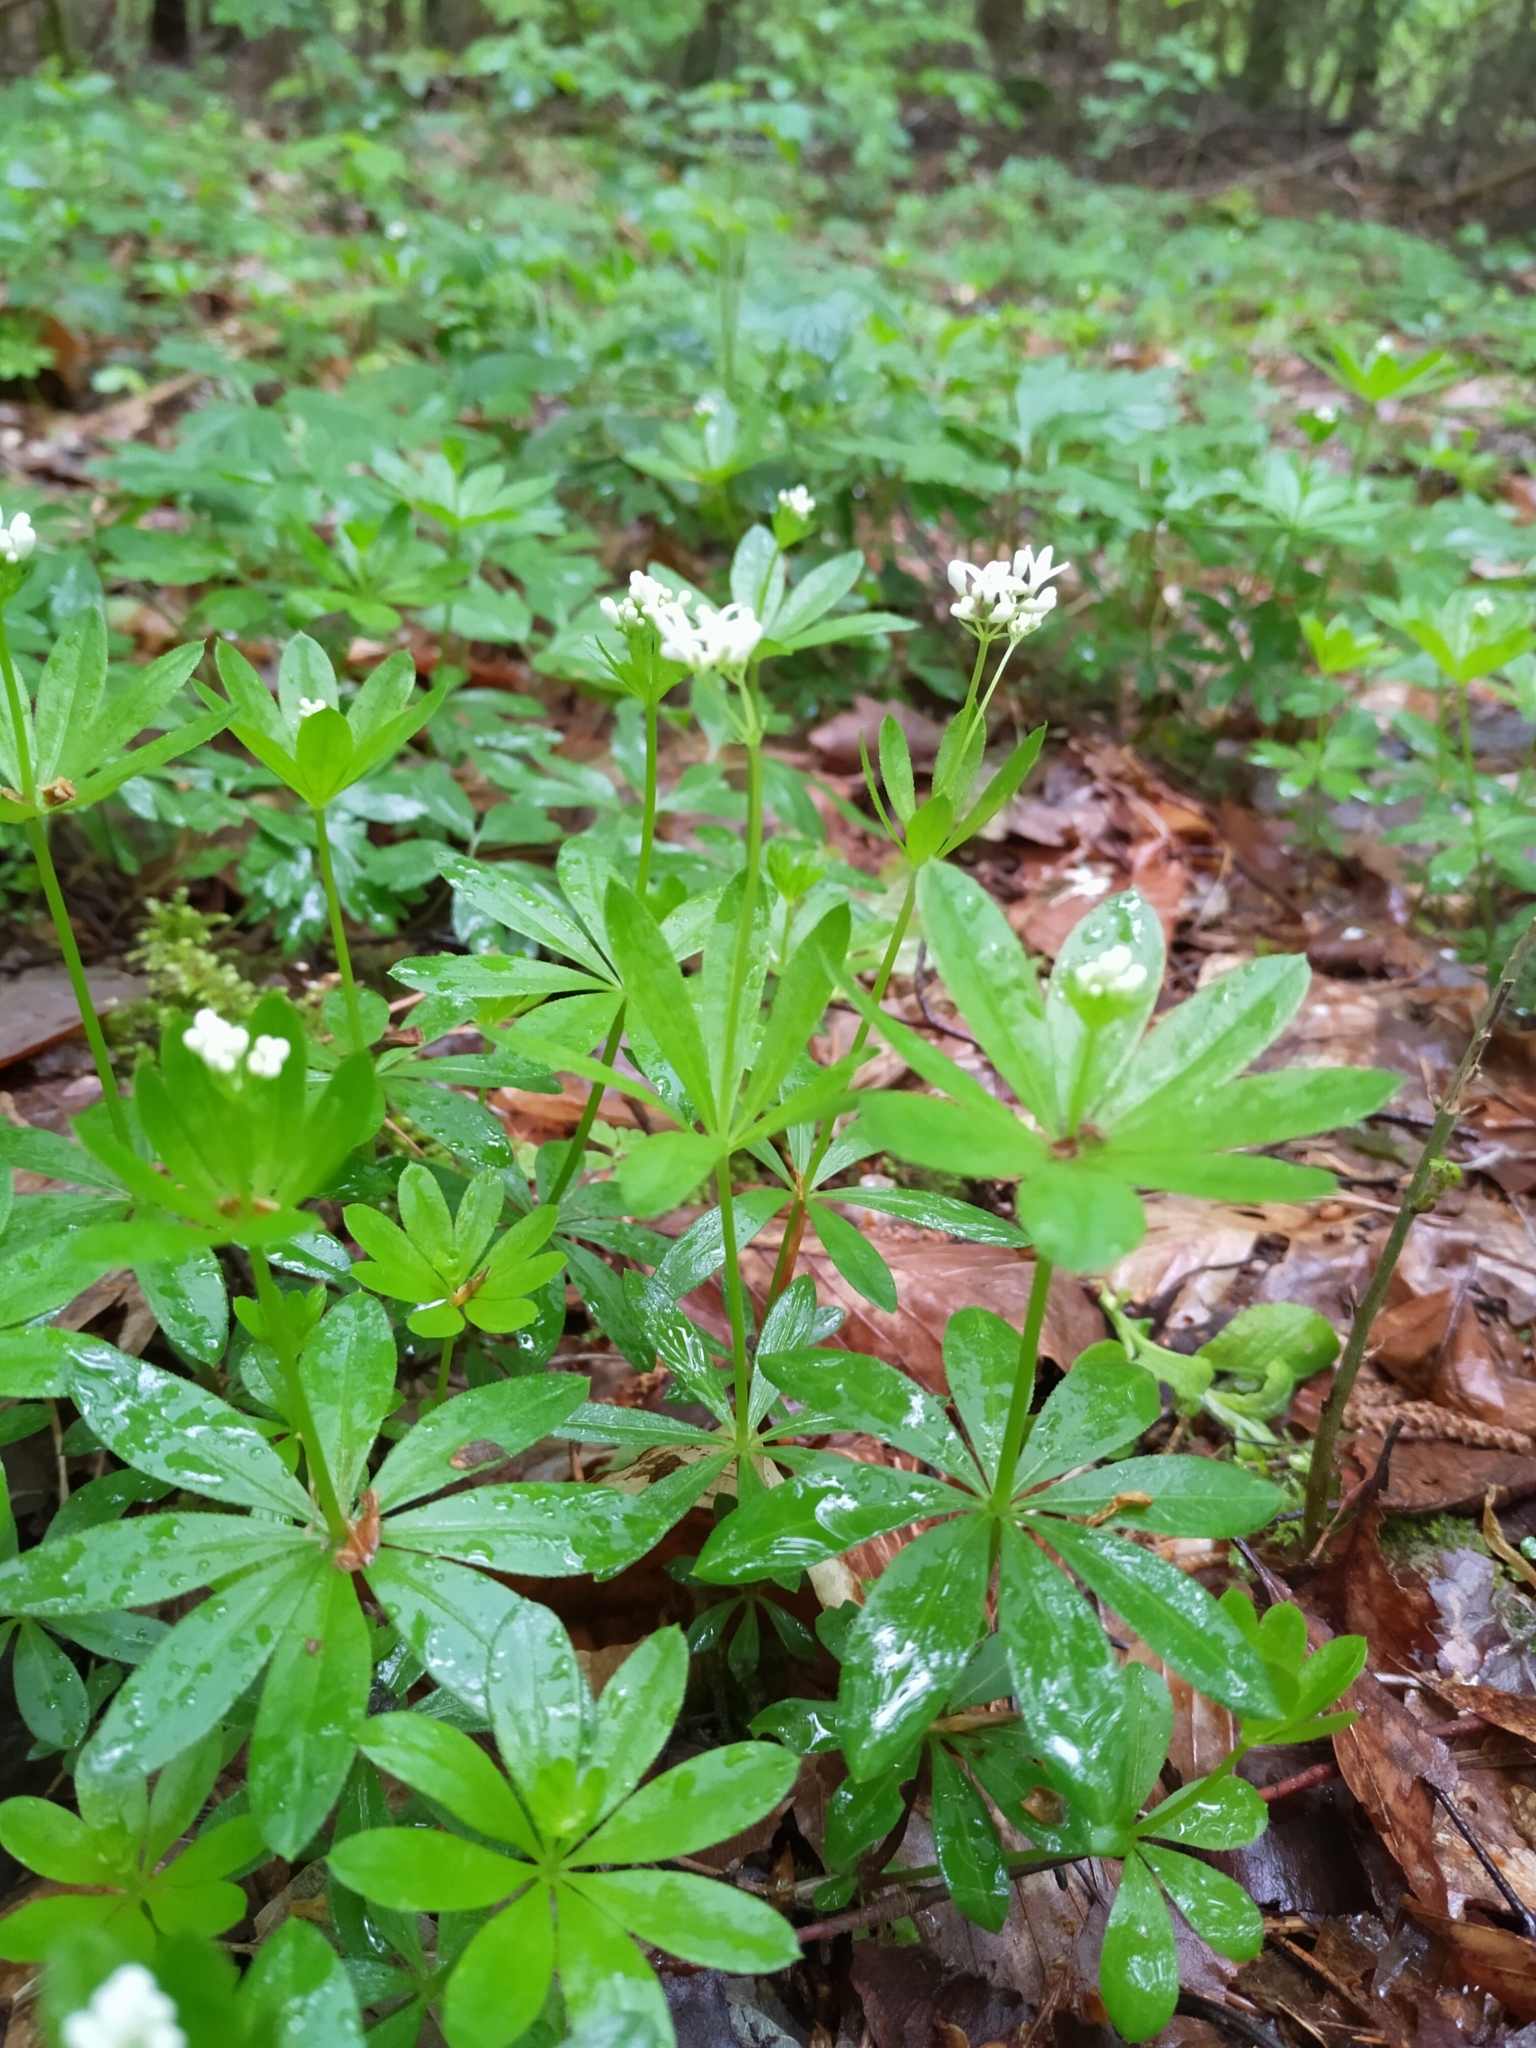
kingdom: Plantae
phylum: Tracheophyta
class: Magnoliopsida
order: Gentianales
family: Rubiaceae
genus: Galium
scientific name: Galium odoratum
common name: Sweet woodruff
